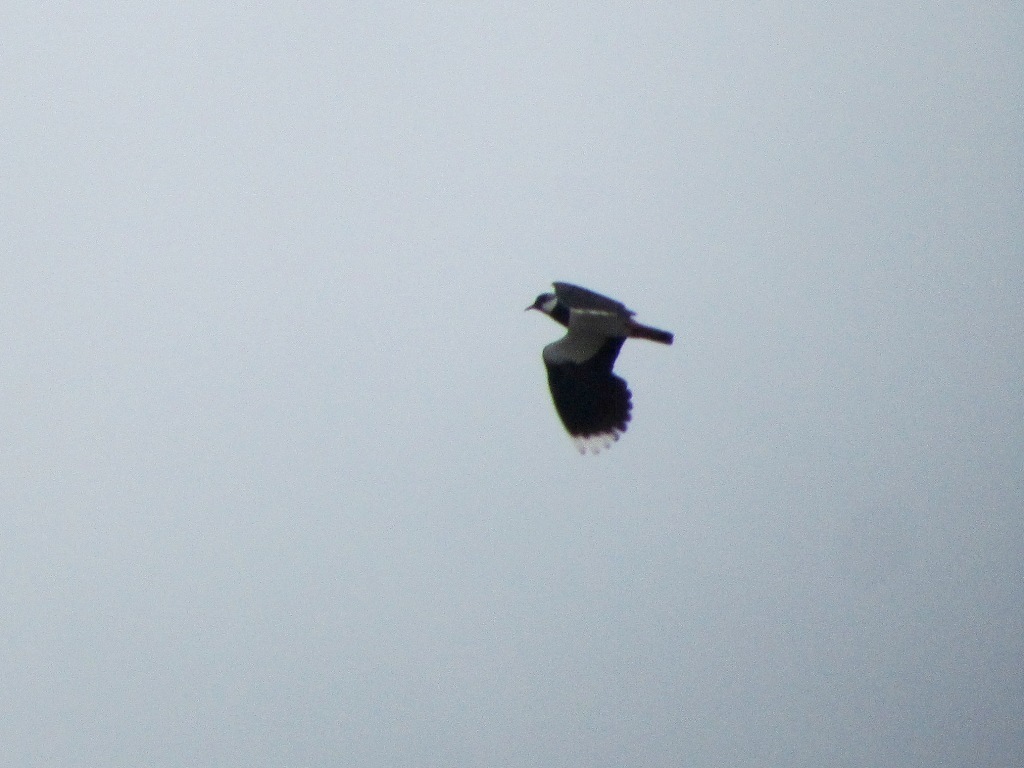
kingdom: Animalia
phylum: Chordata
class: Aves
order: Charadriiformes
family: Charadriidae
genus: Vanellus
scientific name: Vanellus vanellus
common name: Northern lapwing
